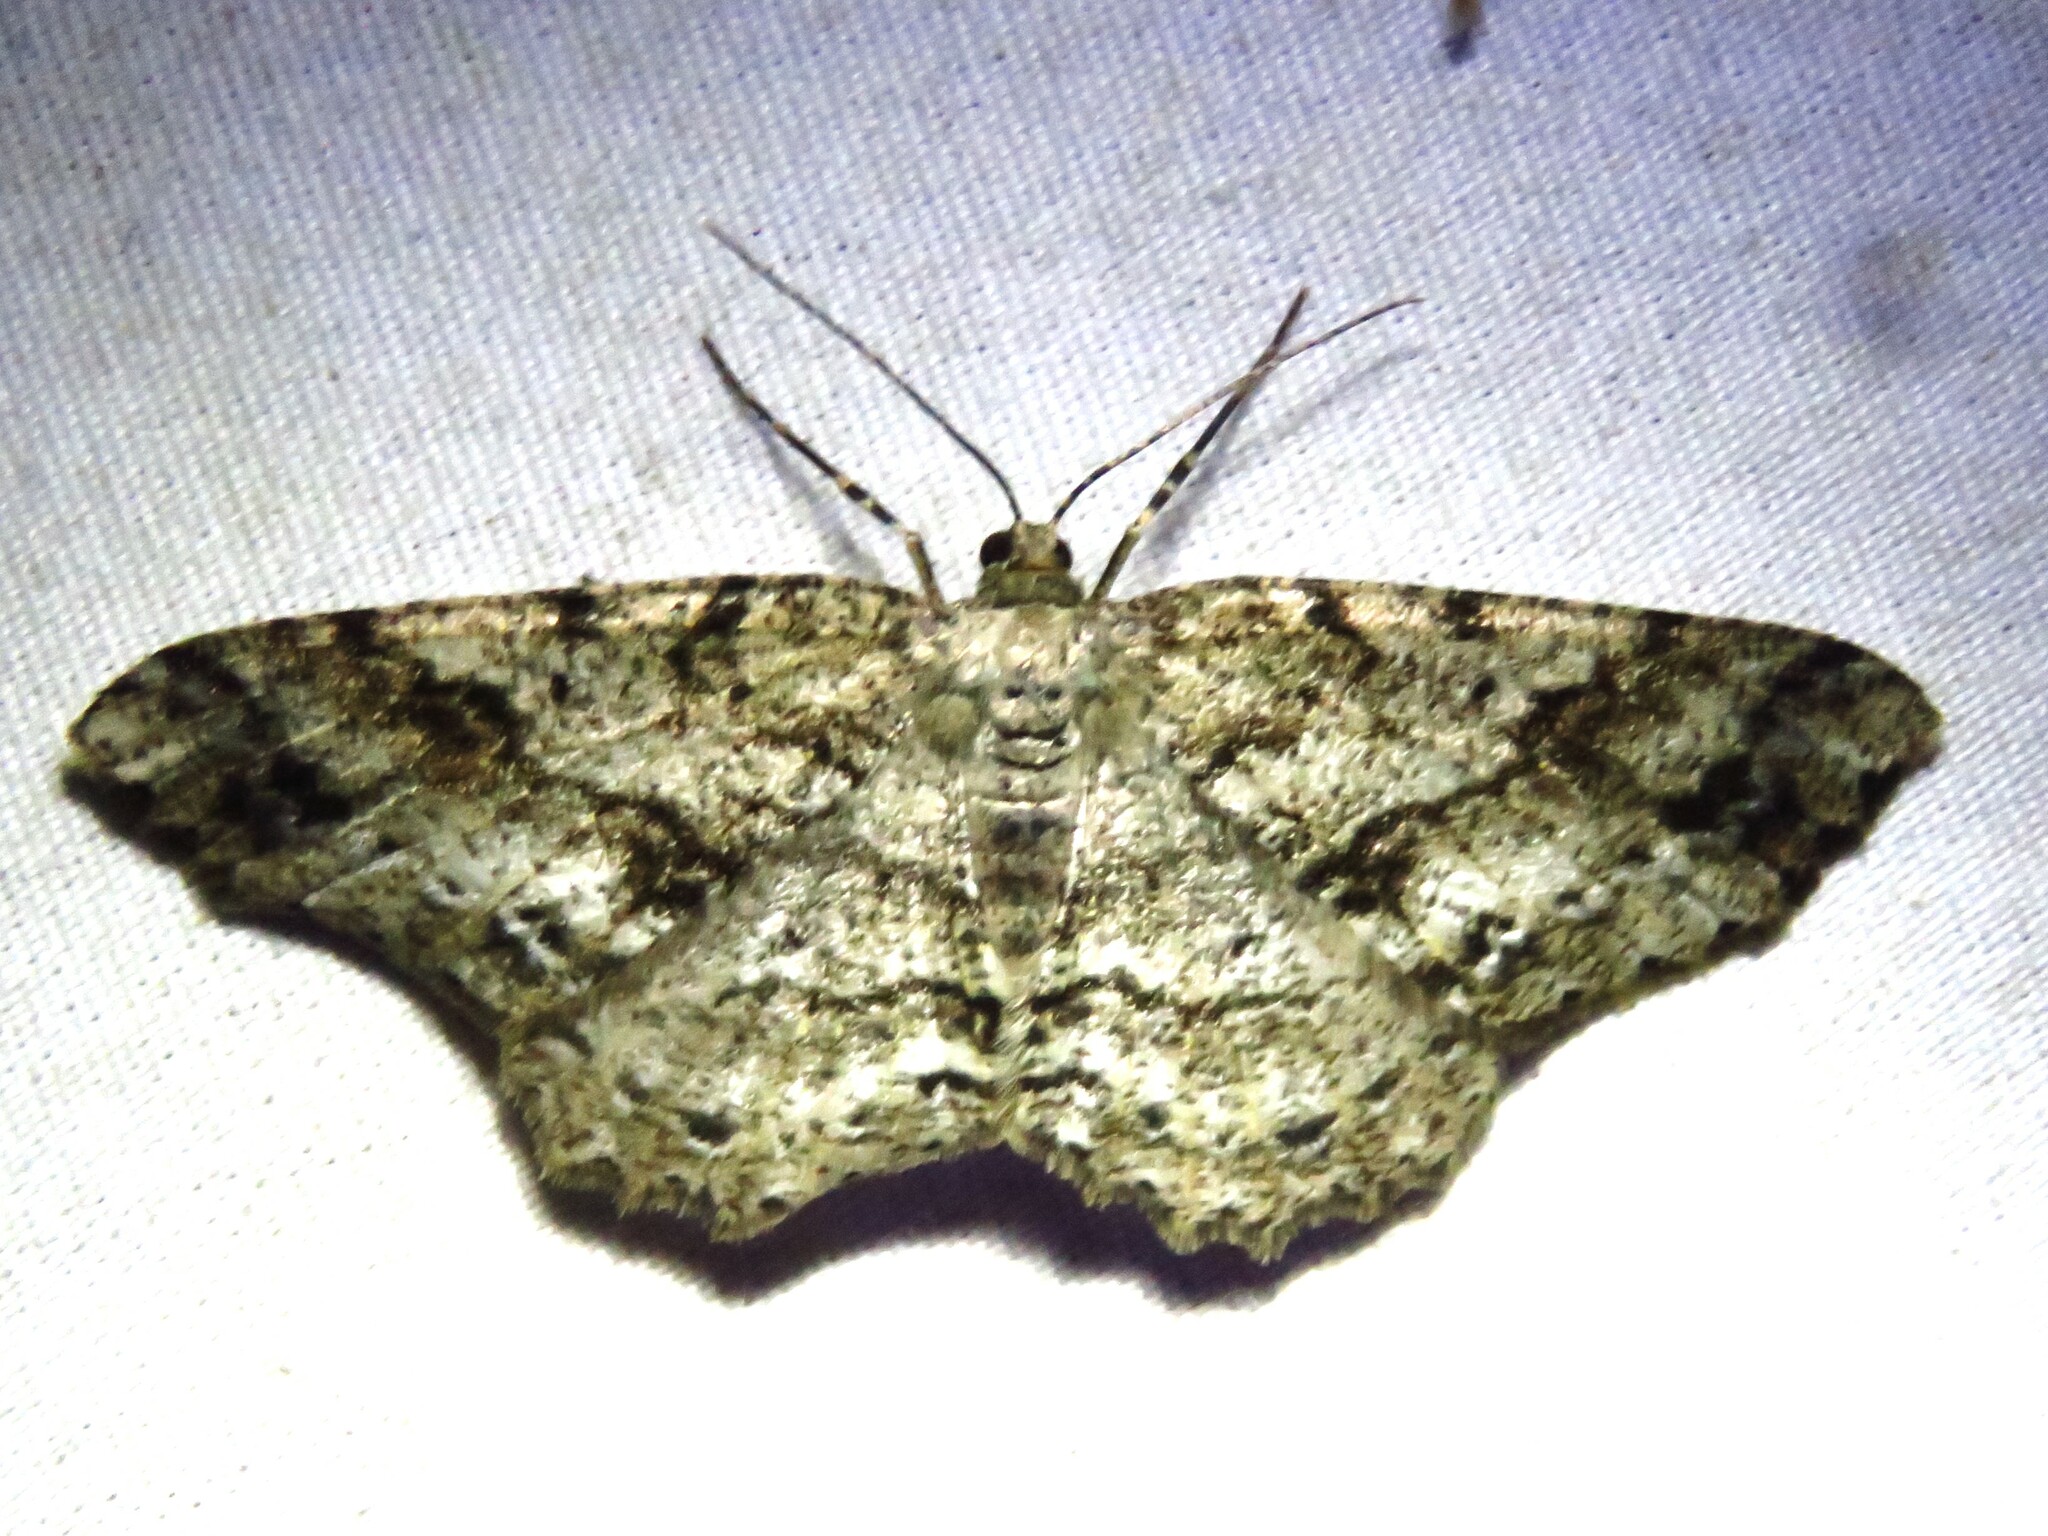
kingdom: Animalia
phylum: Arthropoda
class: Insecta
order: Lepidoptera
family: Geometridae
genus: Melanolophia
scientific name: Melanolophia canadaria
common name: Canadian melanolophia
